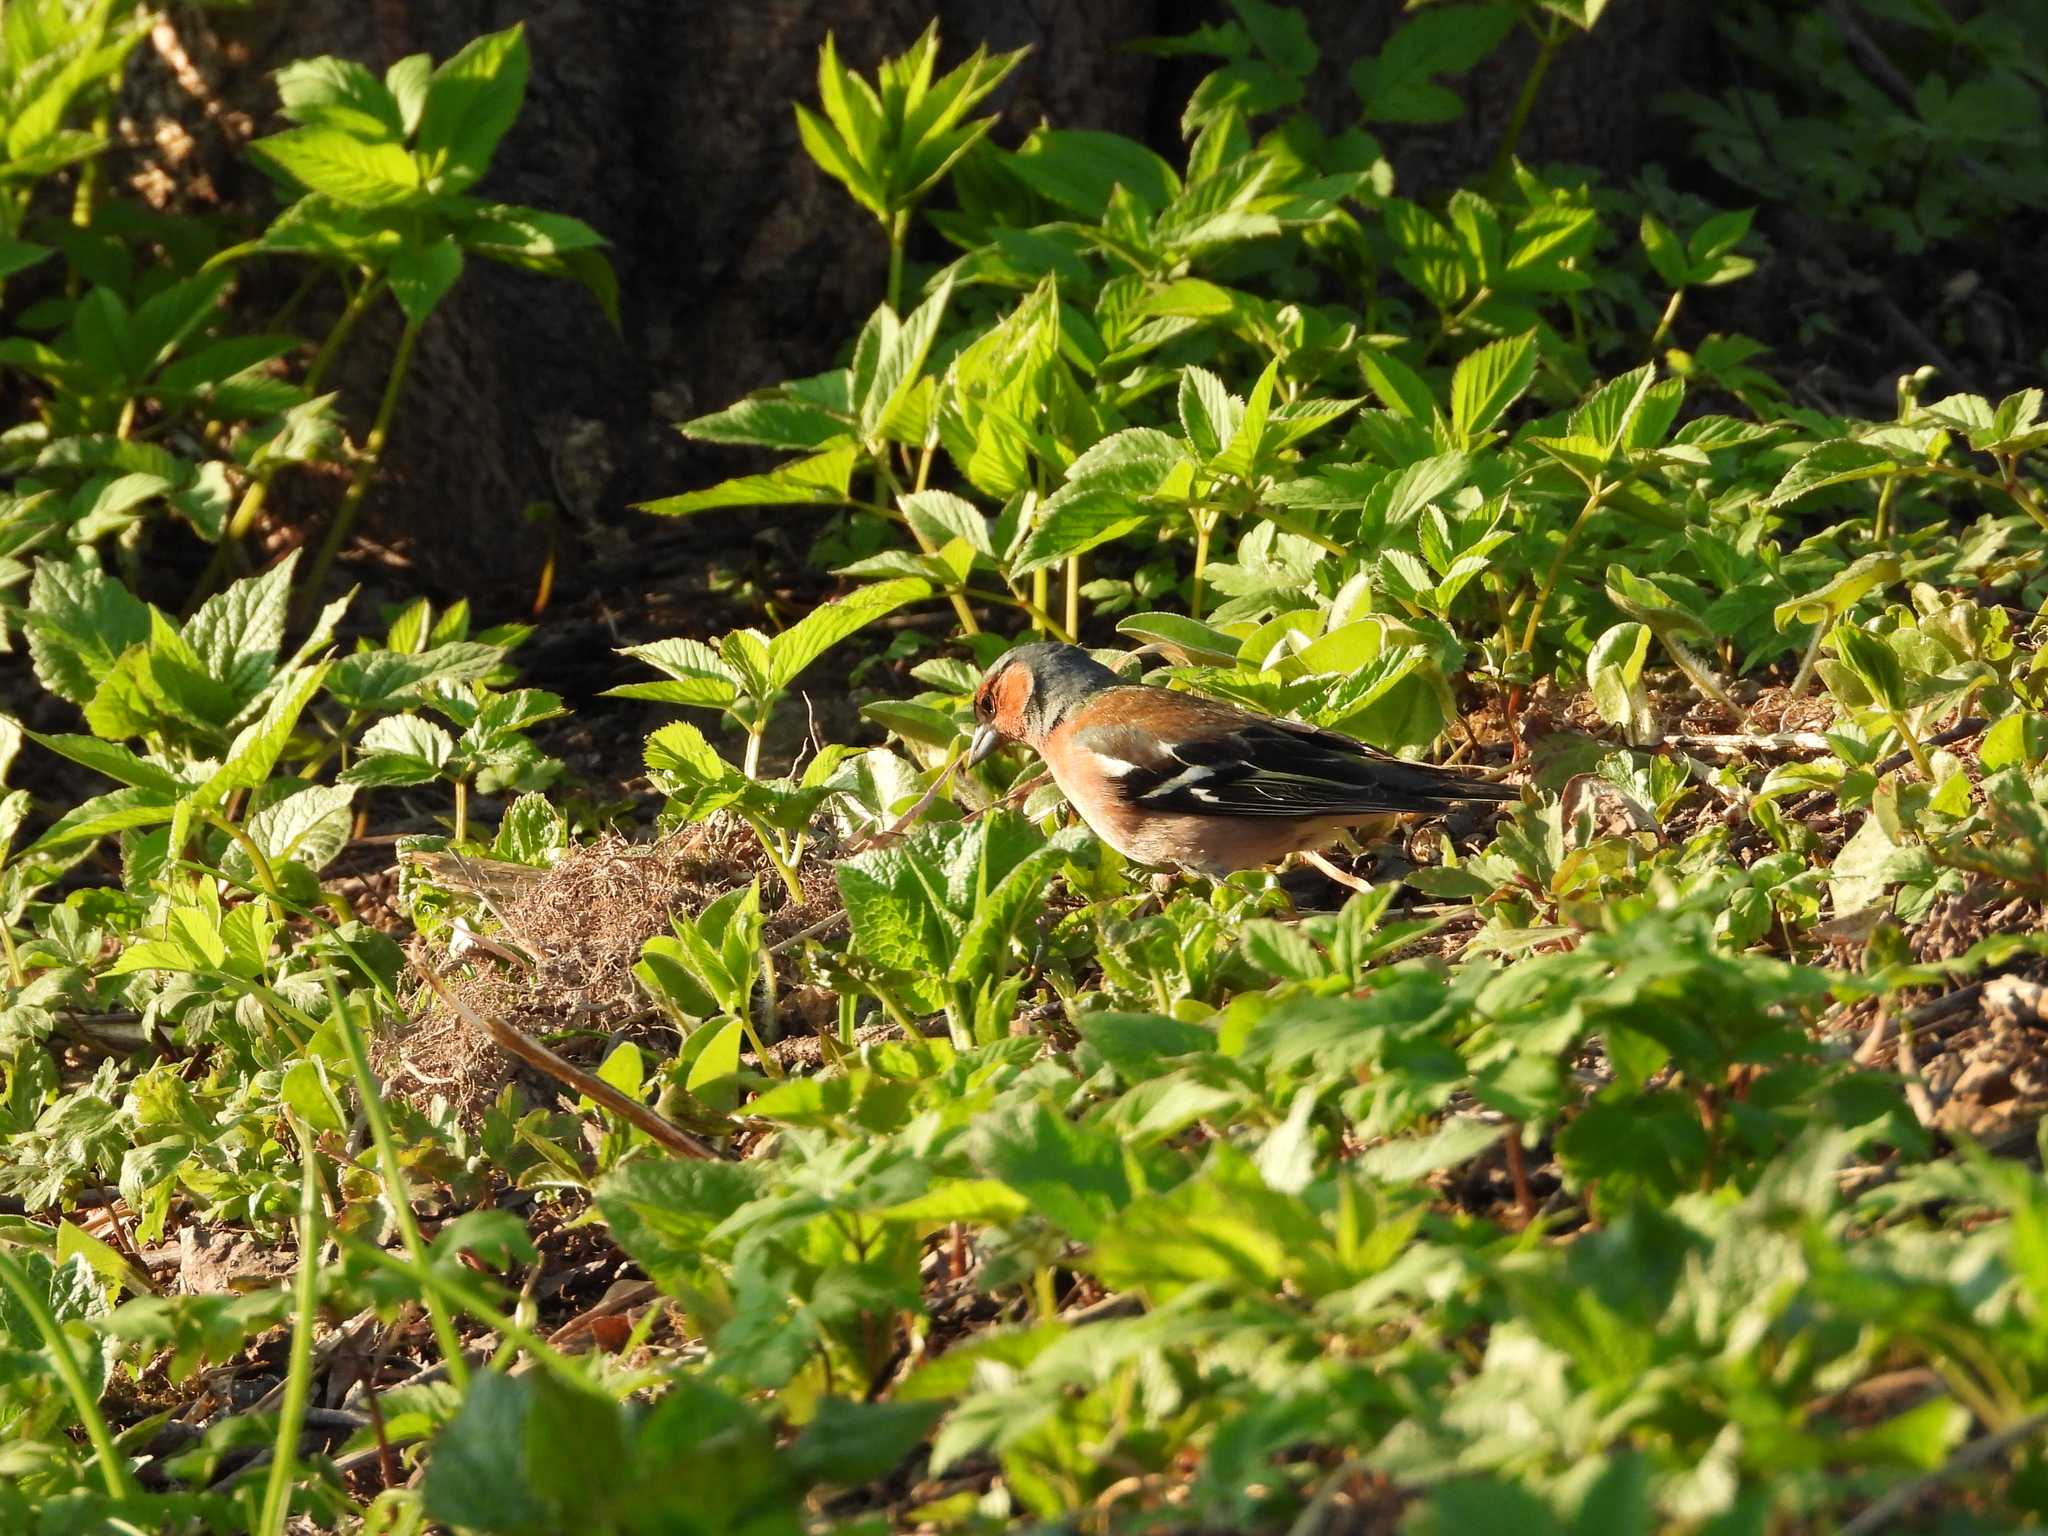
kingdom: Animalia
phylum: Chordata
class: Aves
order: Passeriformes
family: Fringillidae
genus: Fringilla
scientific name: Fringilla coelebs
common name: Common chaffinch
